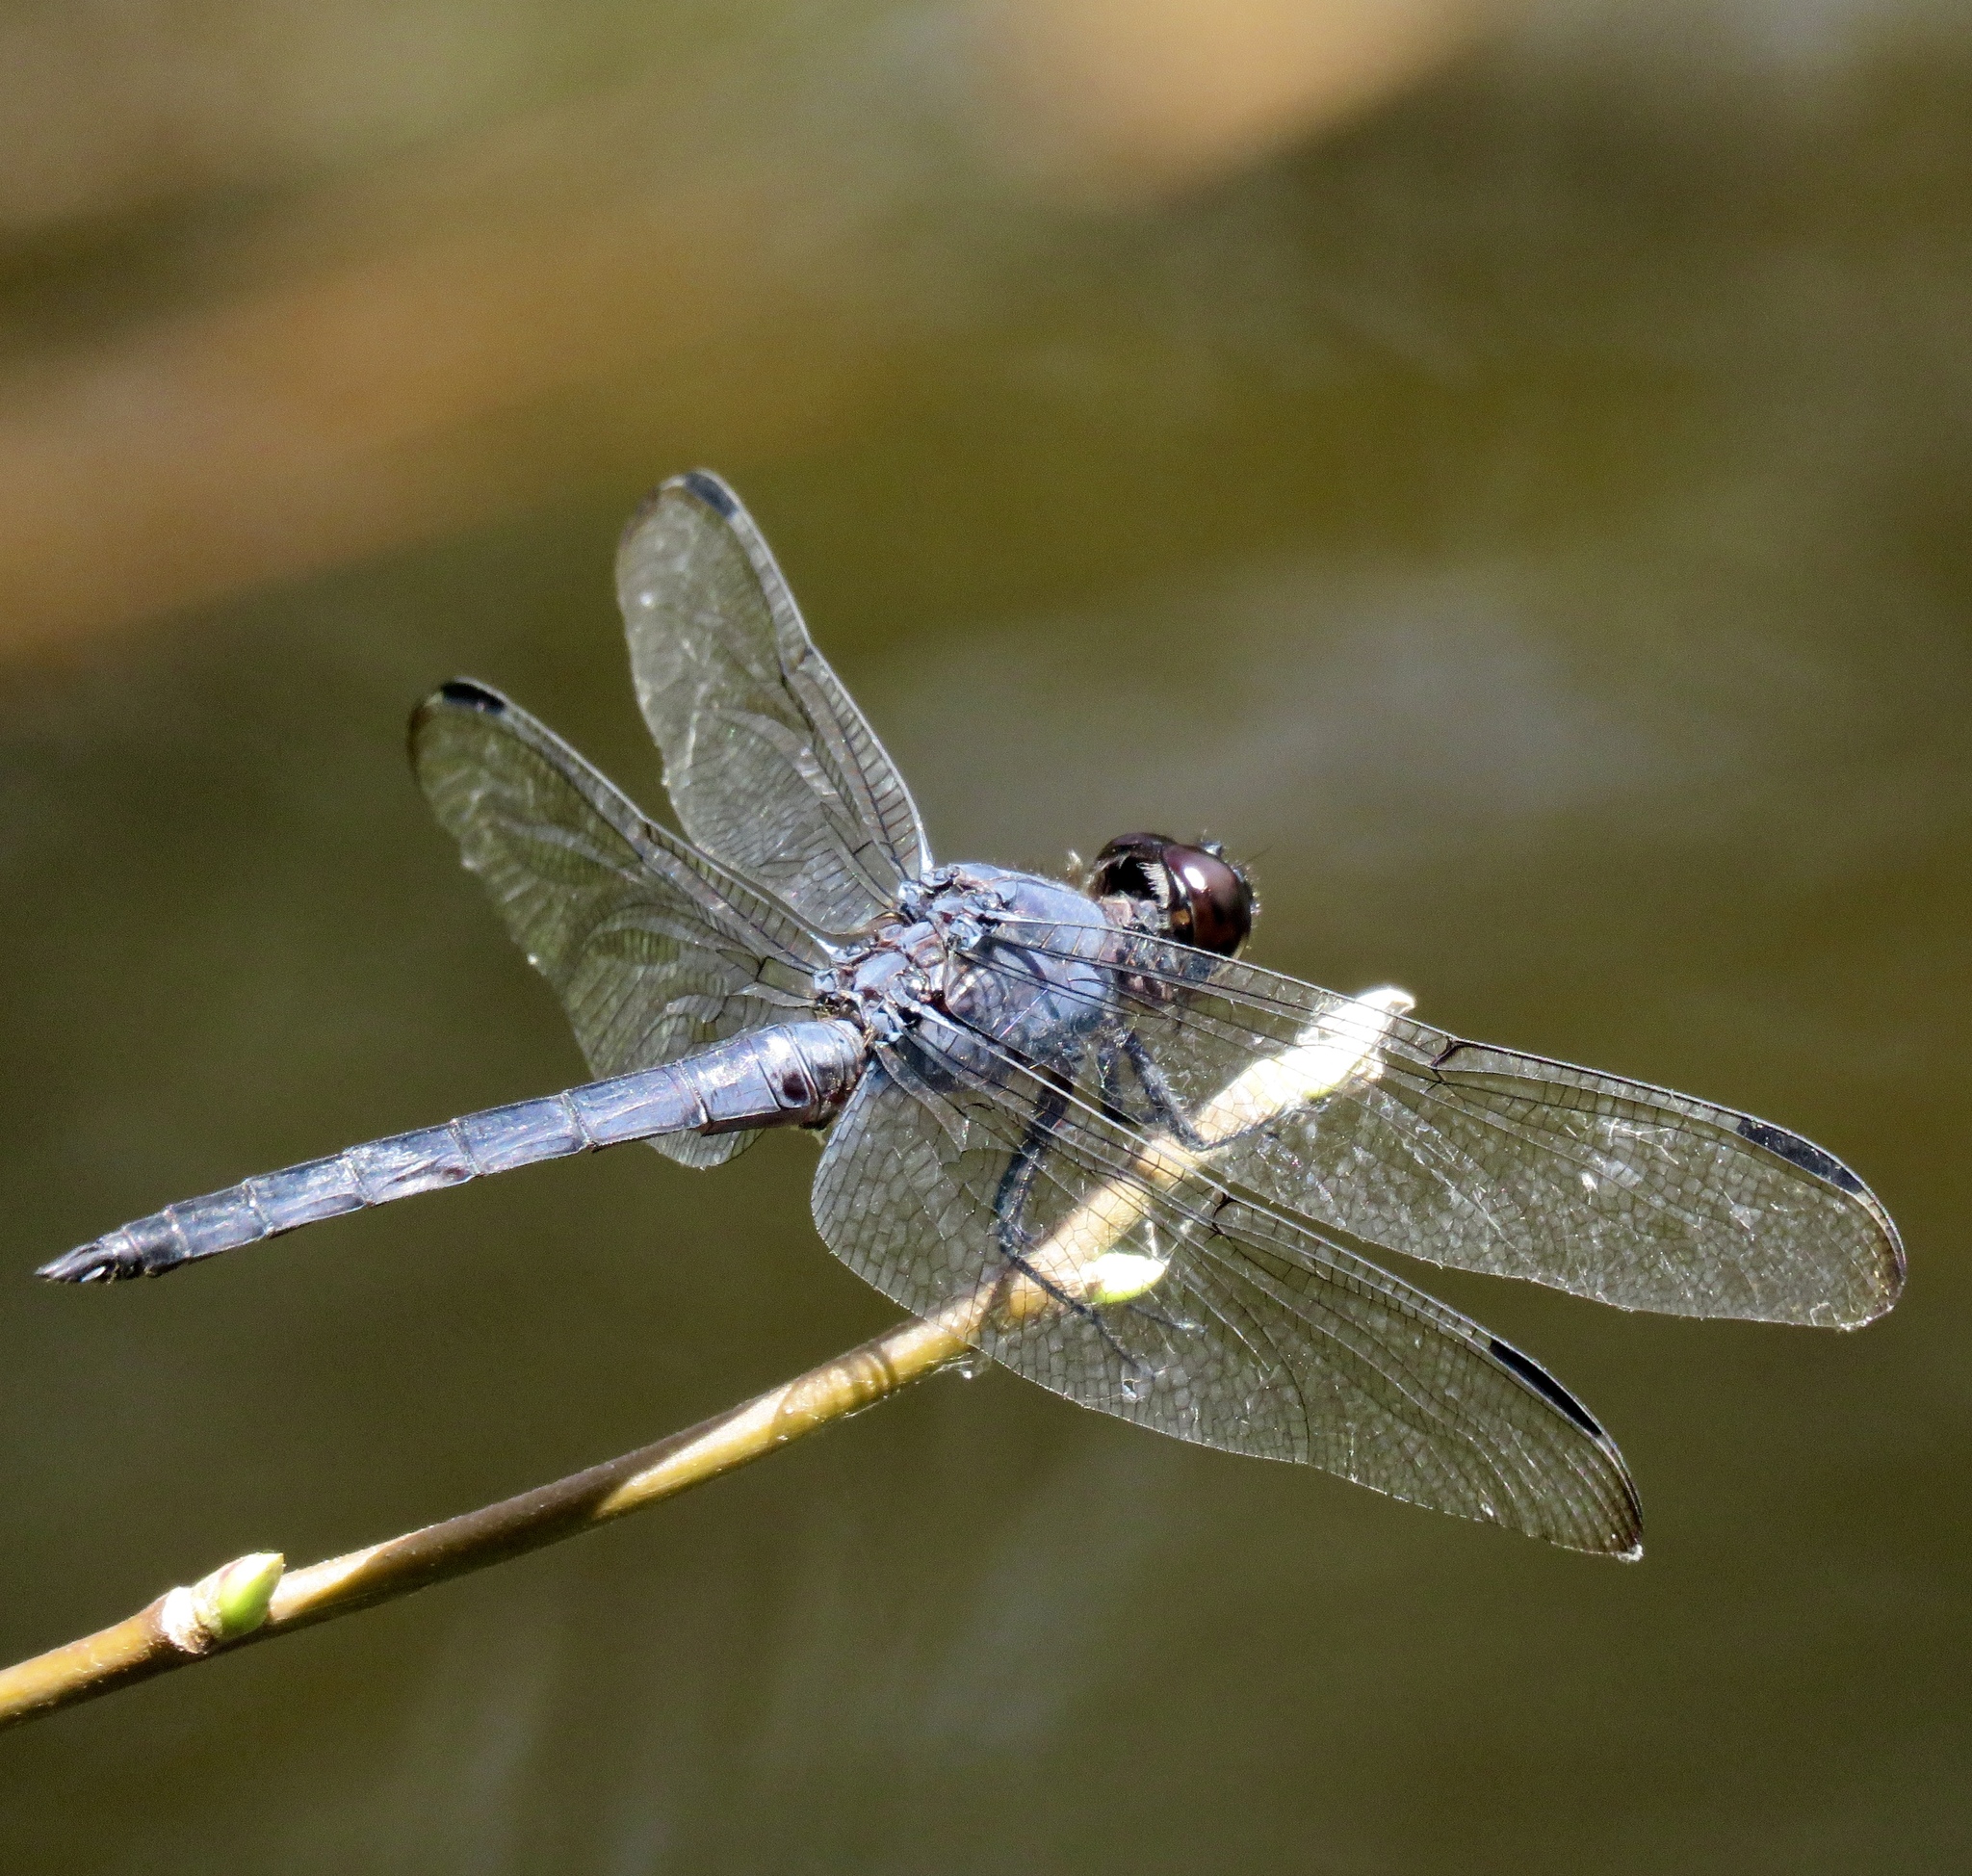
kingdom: Animalia
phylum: Arthropoda
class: Insecta
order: Odonata
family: Libellulidae
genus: Libellula
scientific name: Libellula incesta
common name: Slaty skimmer
